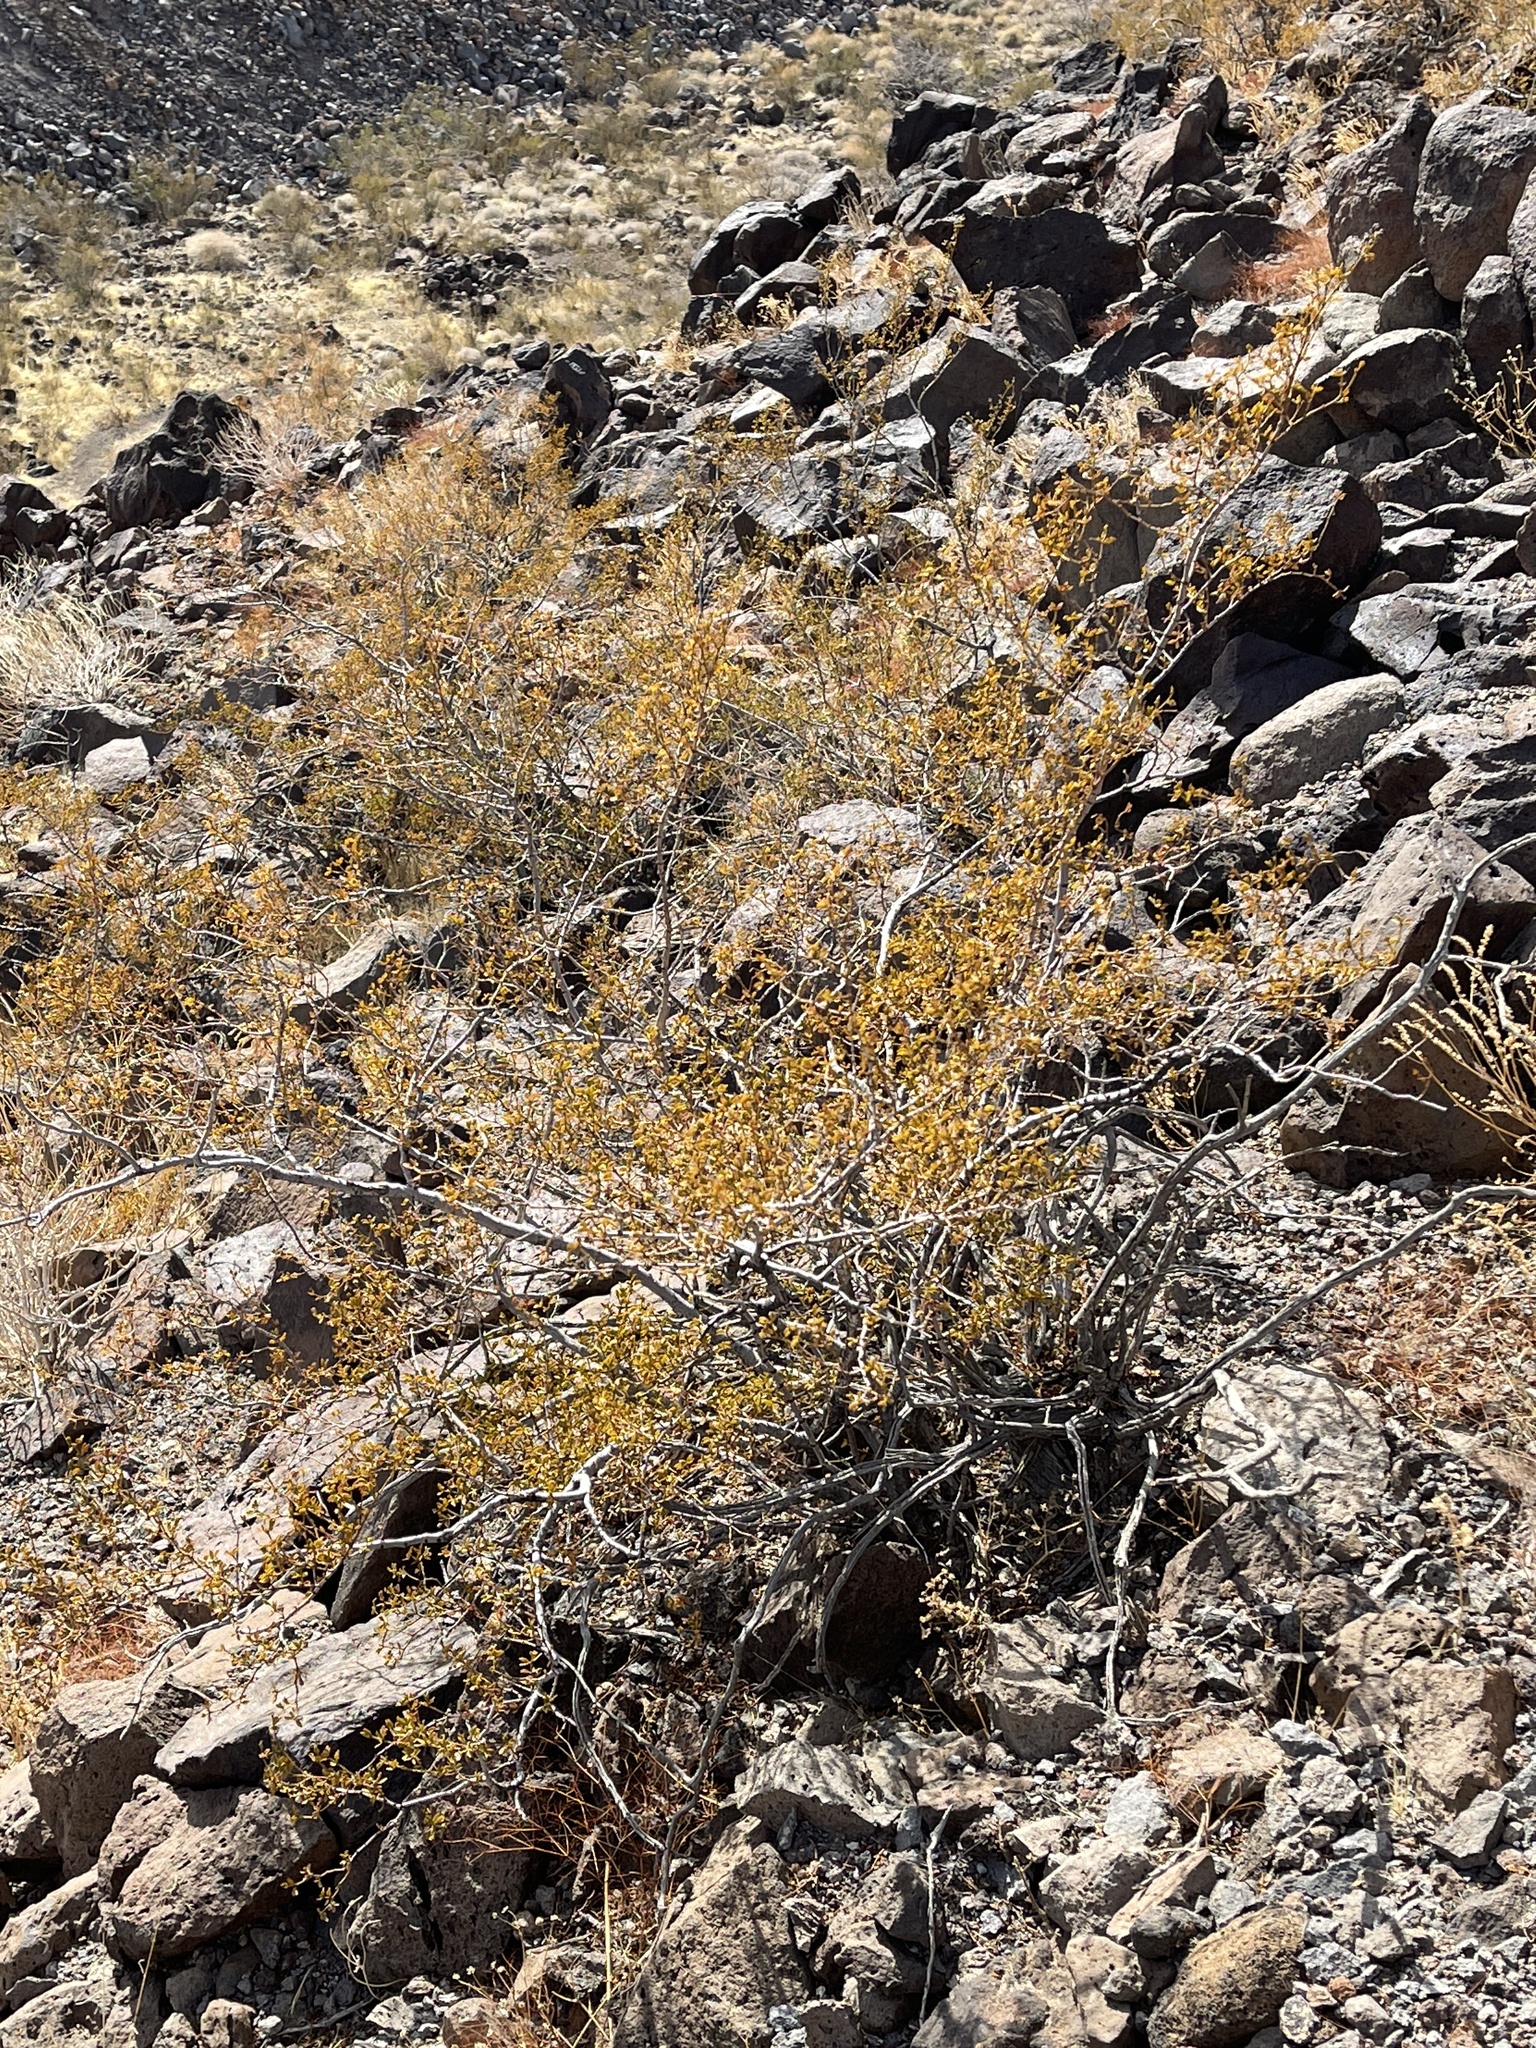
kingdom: Plantae
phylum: Tracheophyta
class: Magnoliopsida
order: Zygophyllales
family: Zygophyllaceae
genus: Larrea
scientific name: Larrea tridentata
